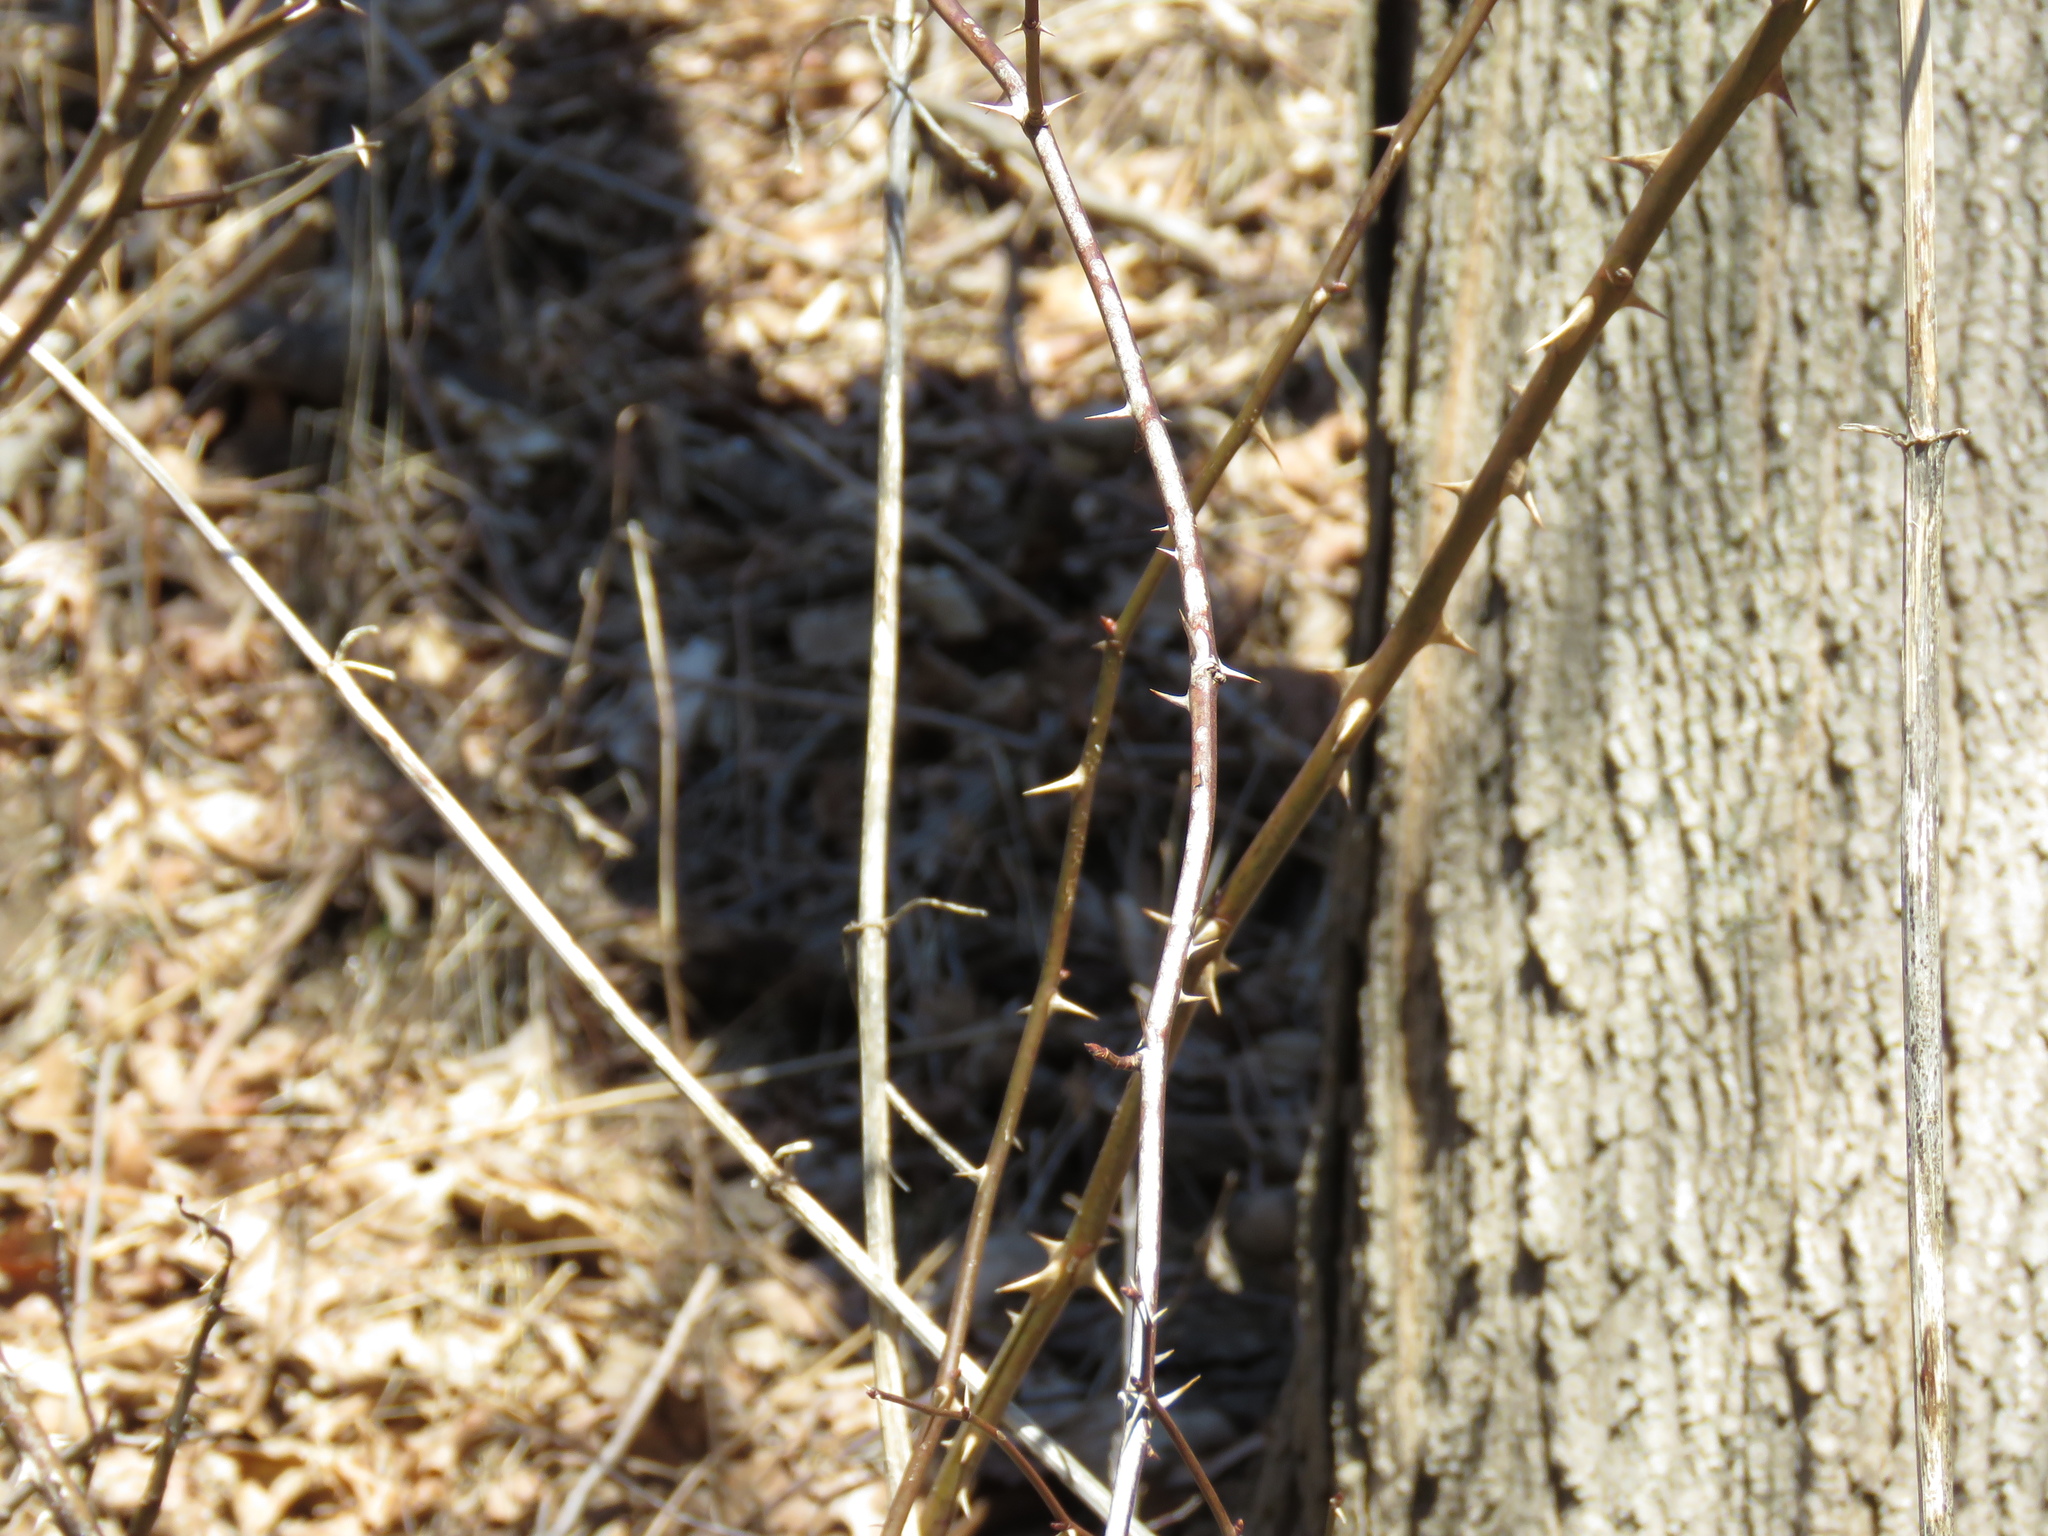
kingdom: Plantae
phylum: Tracheophyta
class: Magnoliopsida
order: Rosales
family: Rosaceae
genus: Rosa
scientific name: Rosa multiflora
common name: Multiflora rose
